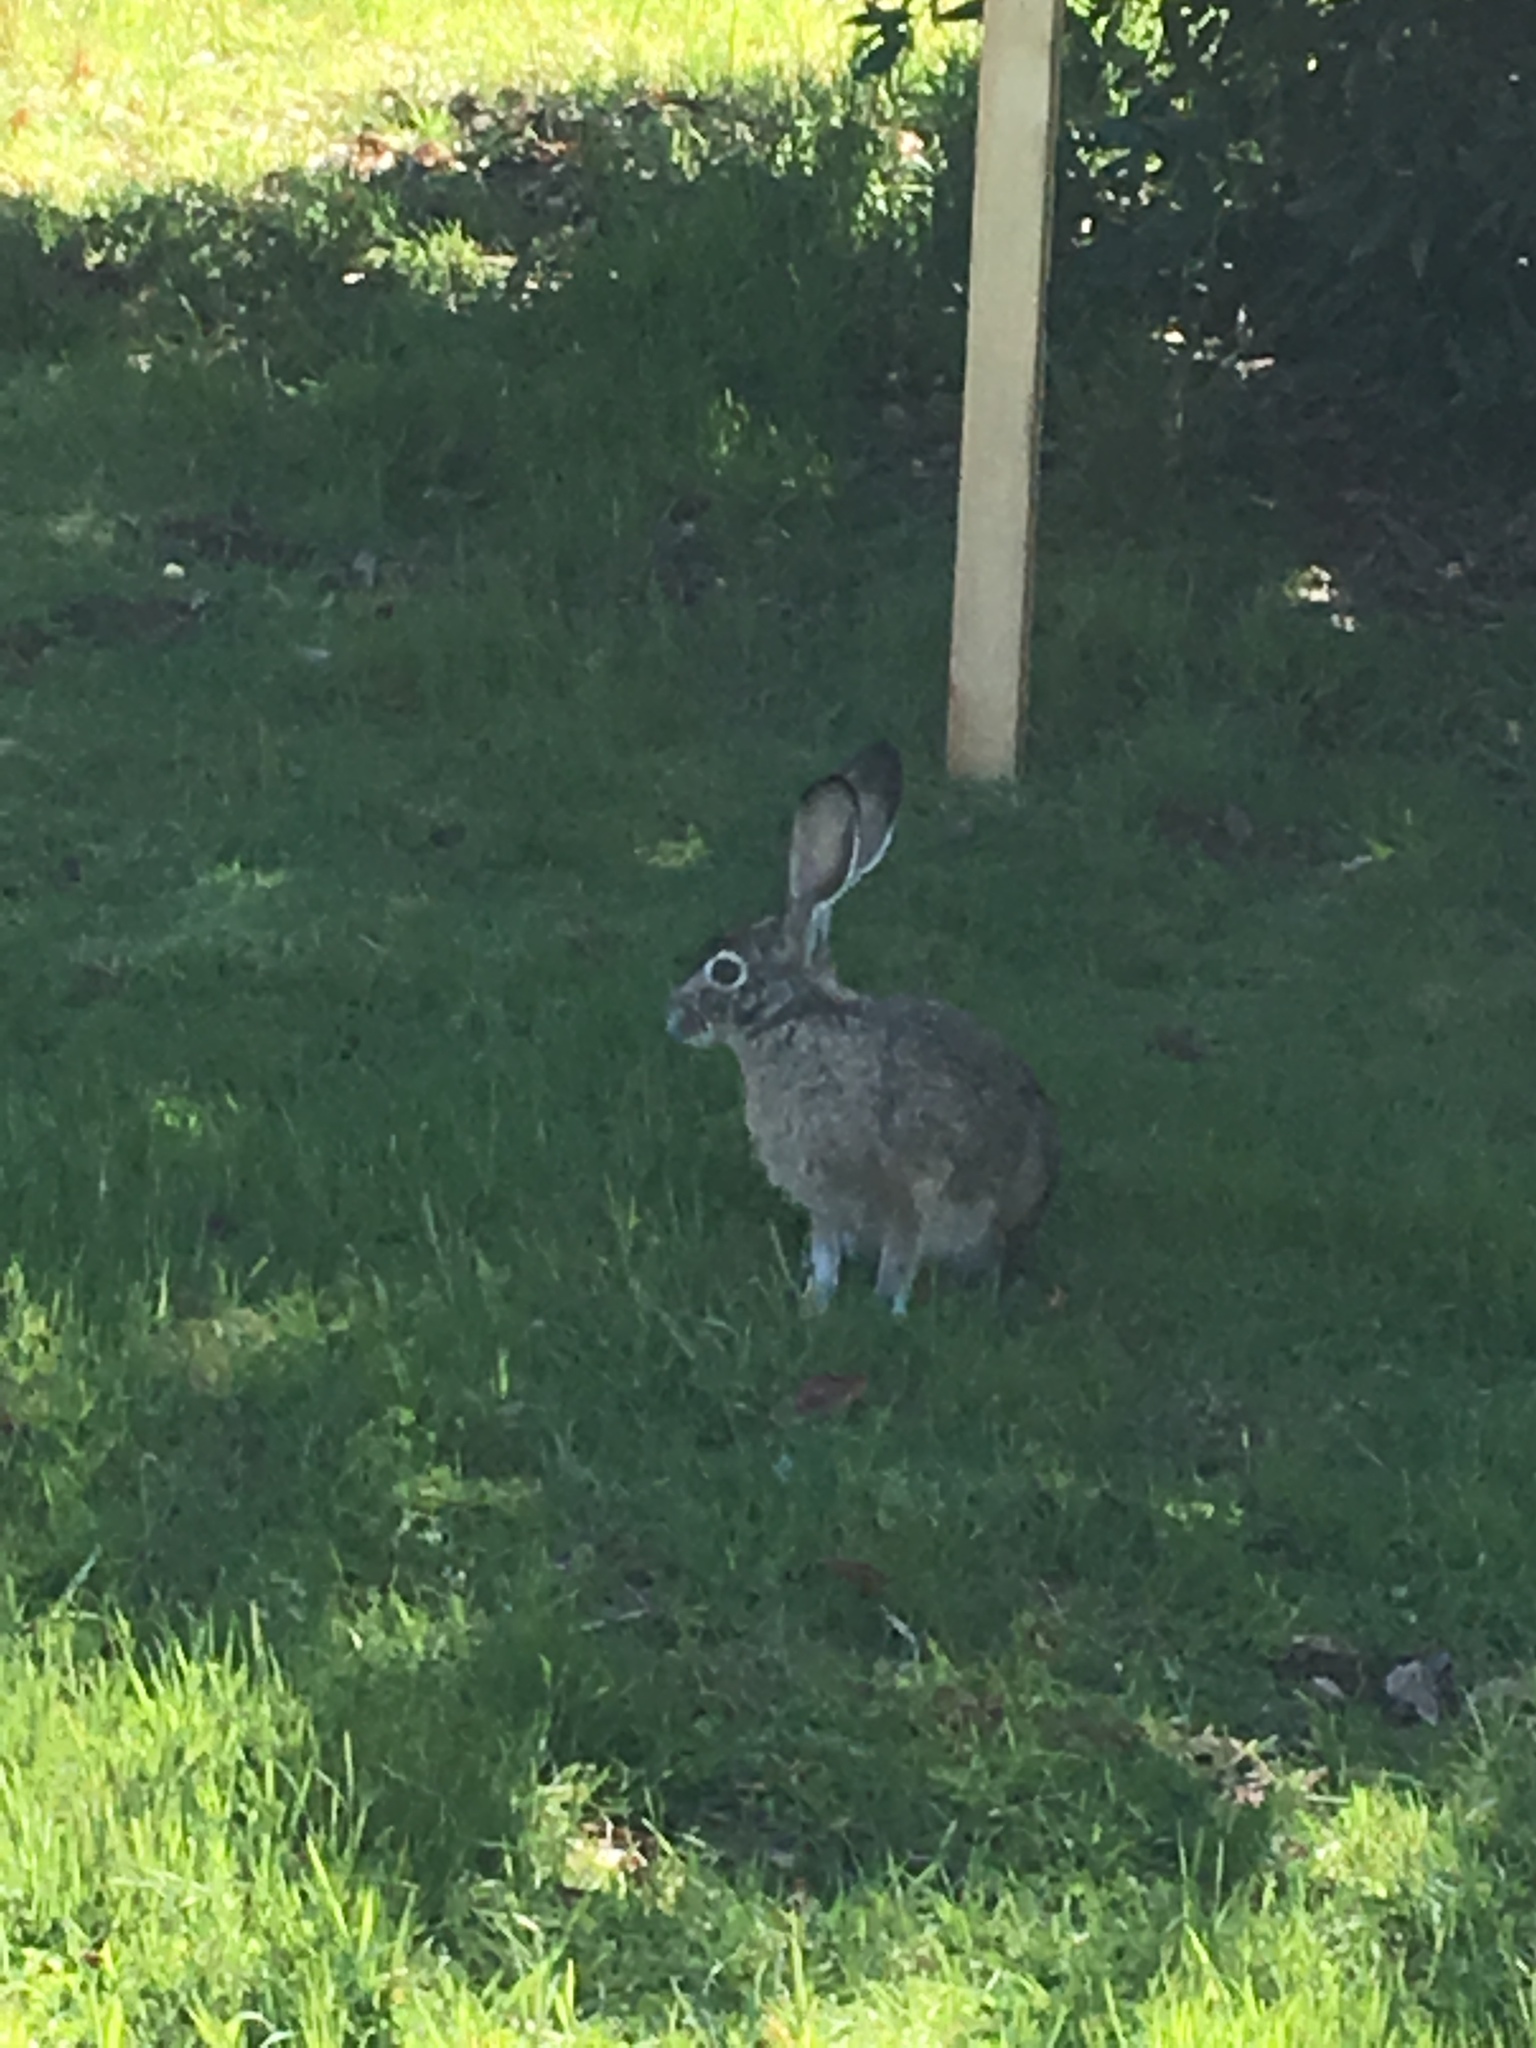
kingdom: Animalia
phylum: Chordata
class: Mammalia
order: Lagomorpha
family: Leporidae
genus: Lepus
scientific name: Lepus californicus
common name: Black-tailed jackrabbit
